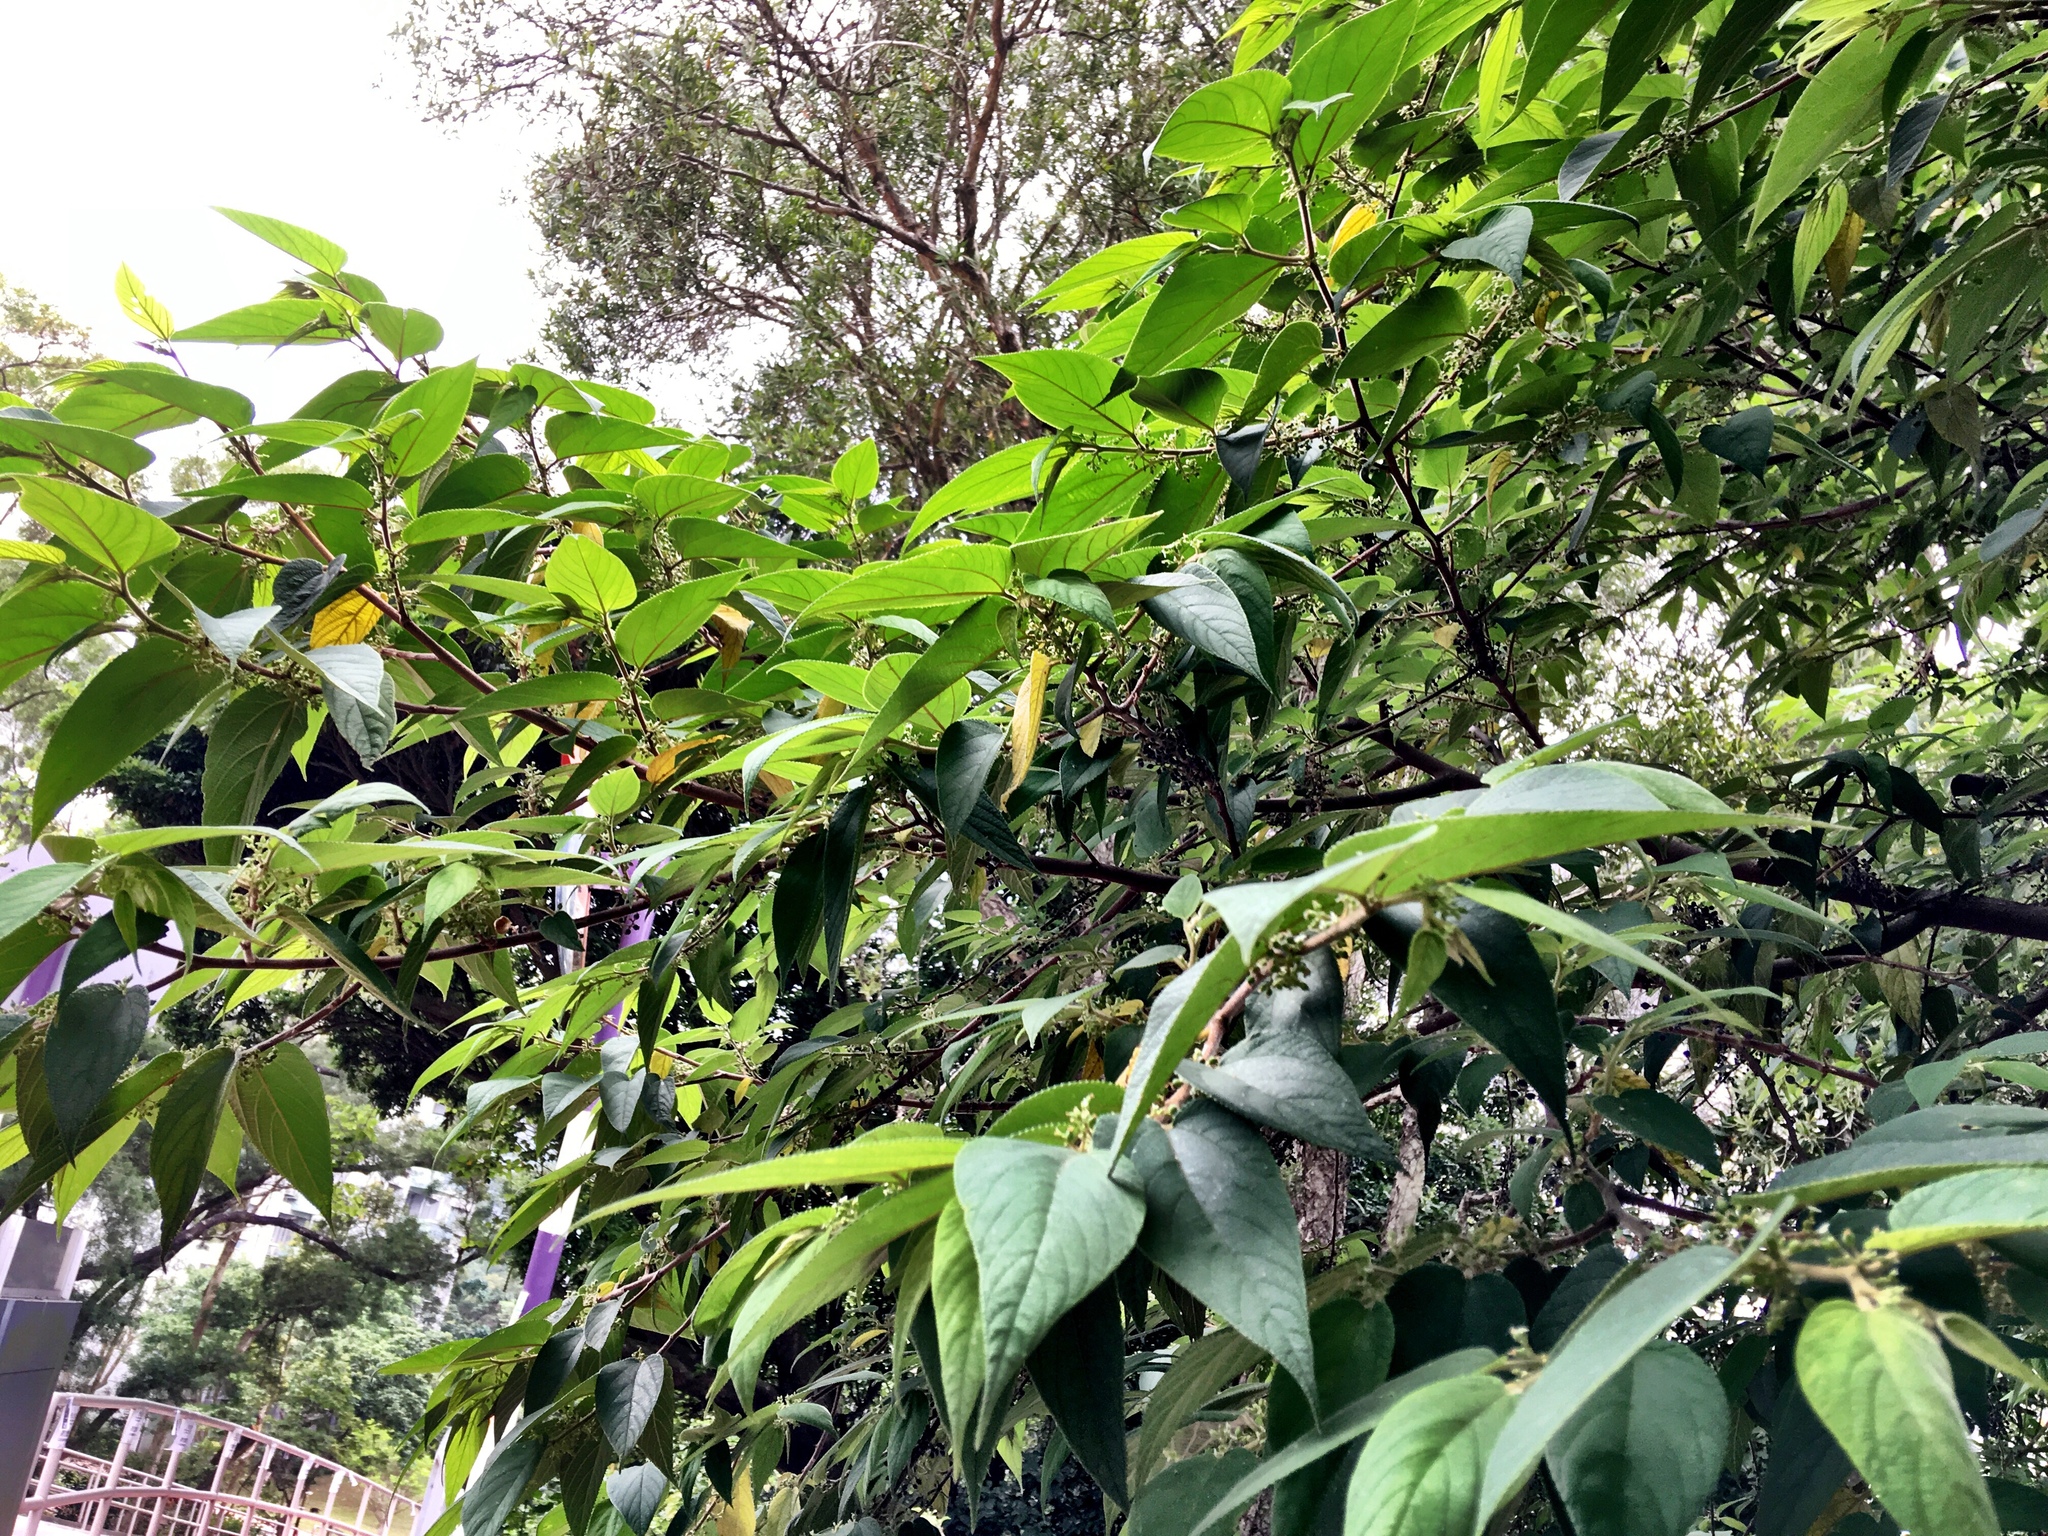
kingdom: Plantae
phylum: Tracheophyta
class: Magnoliopsida
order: Rosales
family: Cannabaceae
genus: Trema
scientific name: Trema tomentosum
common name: Peach-leaf-poisonbush
